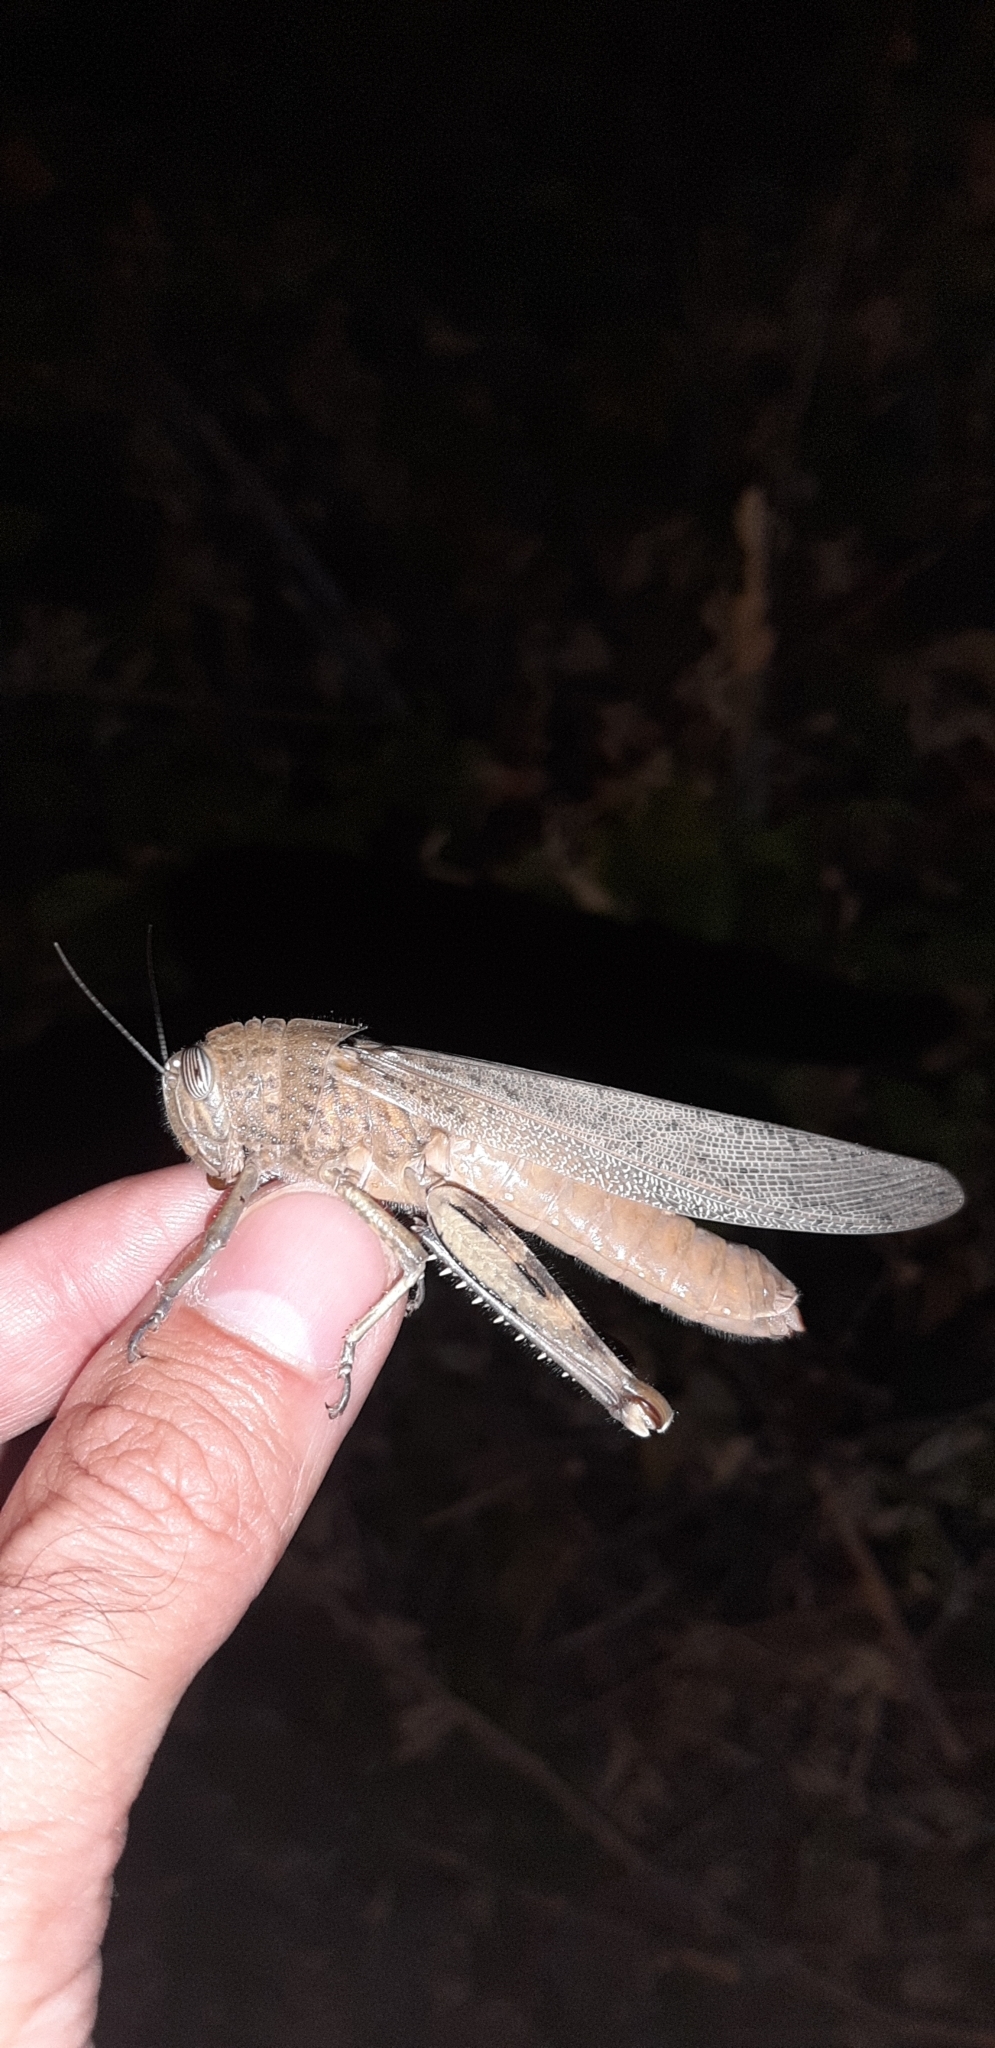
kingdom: Animalia
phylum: Arthropoda
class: Insecta
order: Orthoptera
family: Acrididae
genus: Anacridium
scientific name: Anacridium aegyptium
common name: Egyptian grasshopper
